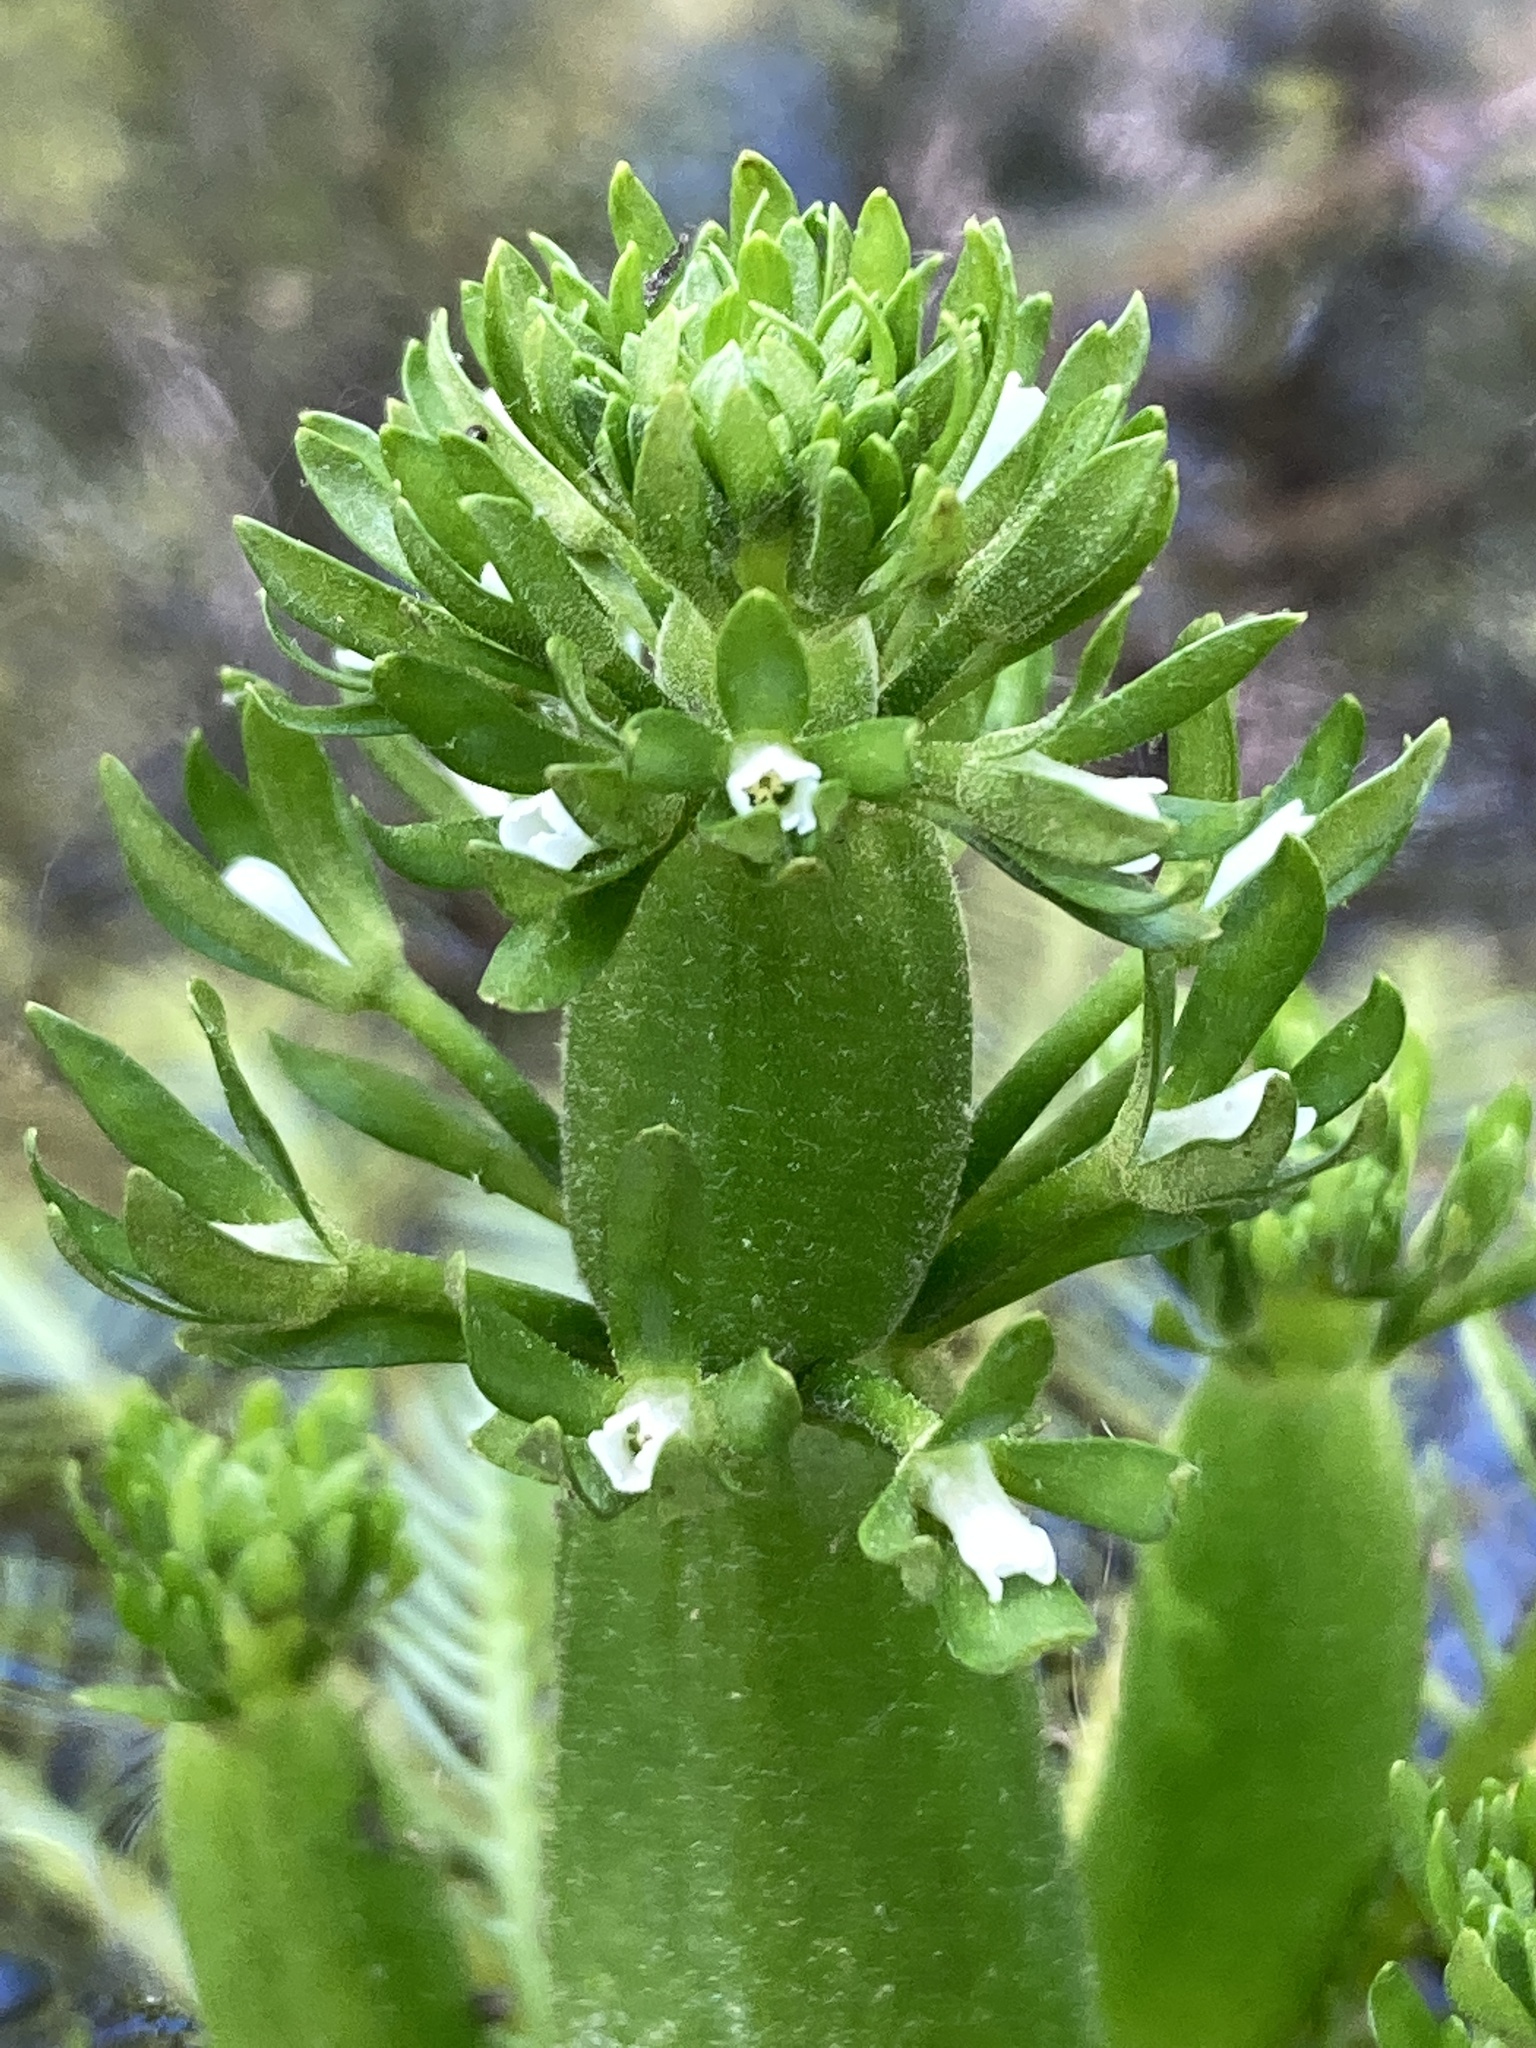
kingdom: Plantae
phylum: Tracheophyta
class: Magnoliopsida
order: Ericales
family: Primulaceae
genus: Hottonia
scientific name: Hottonia inflata
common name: American featherfoil
